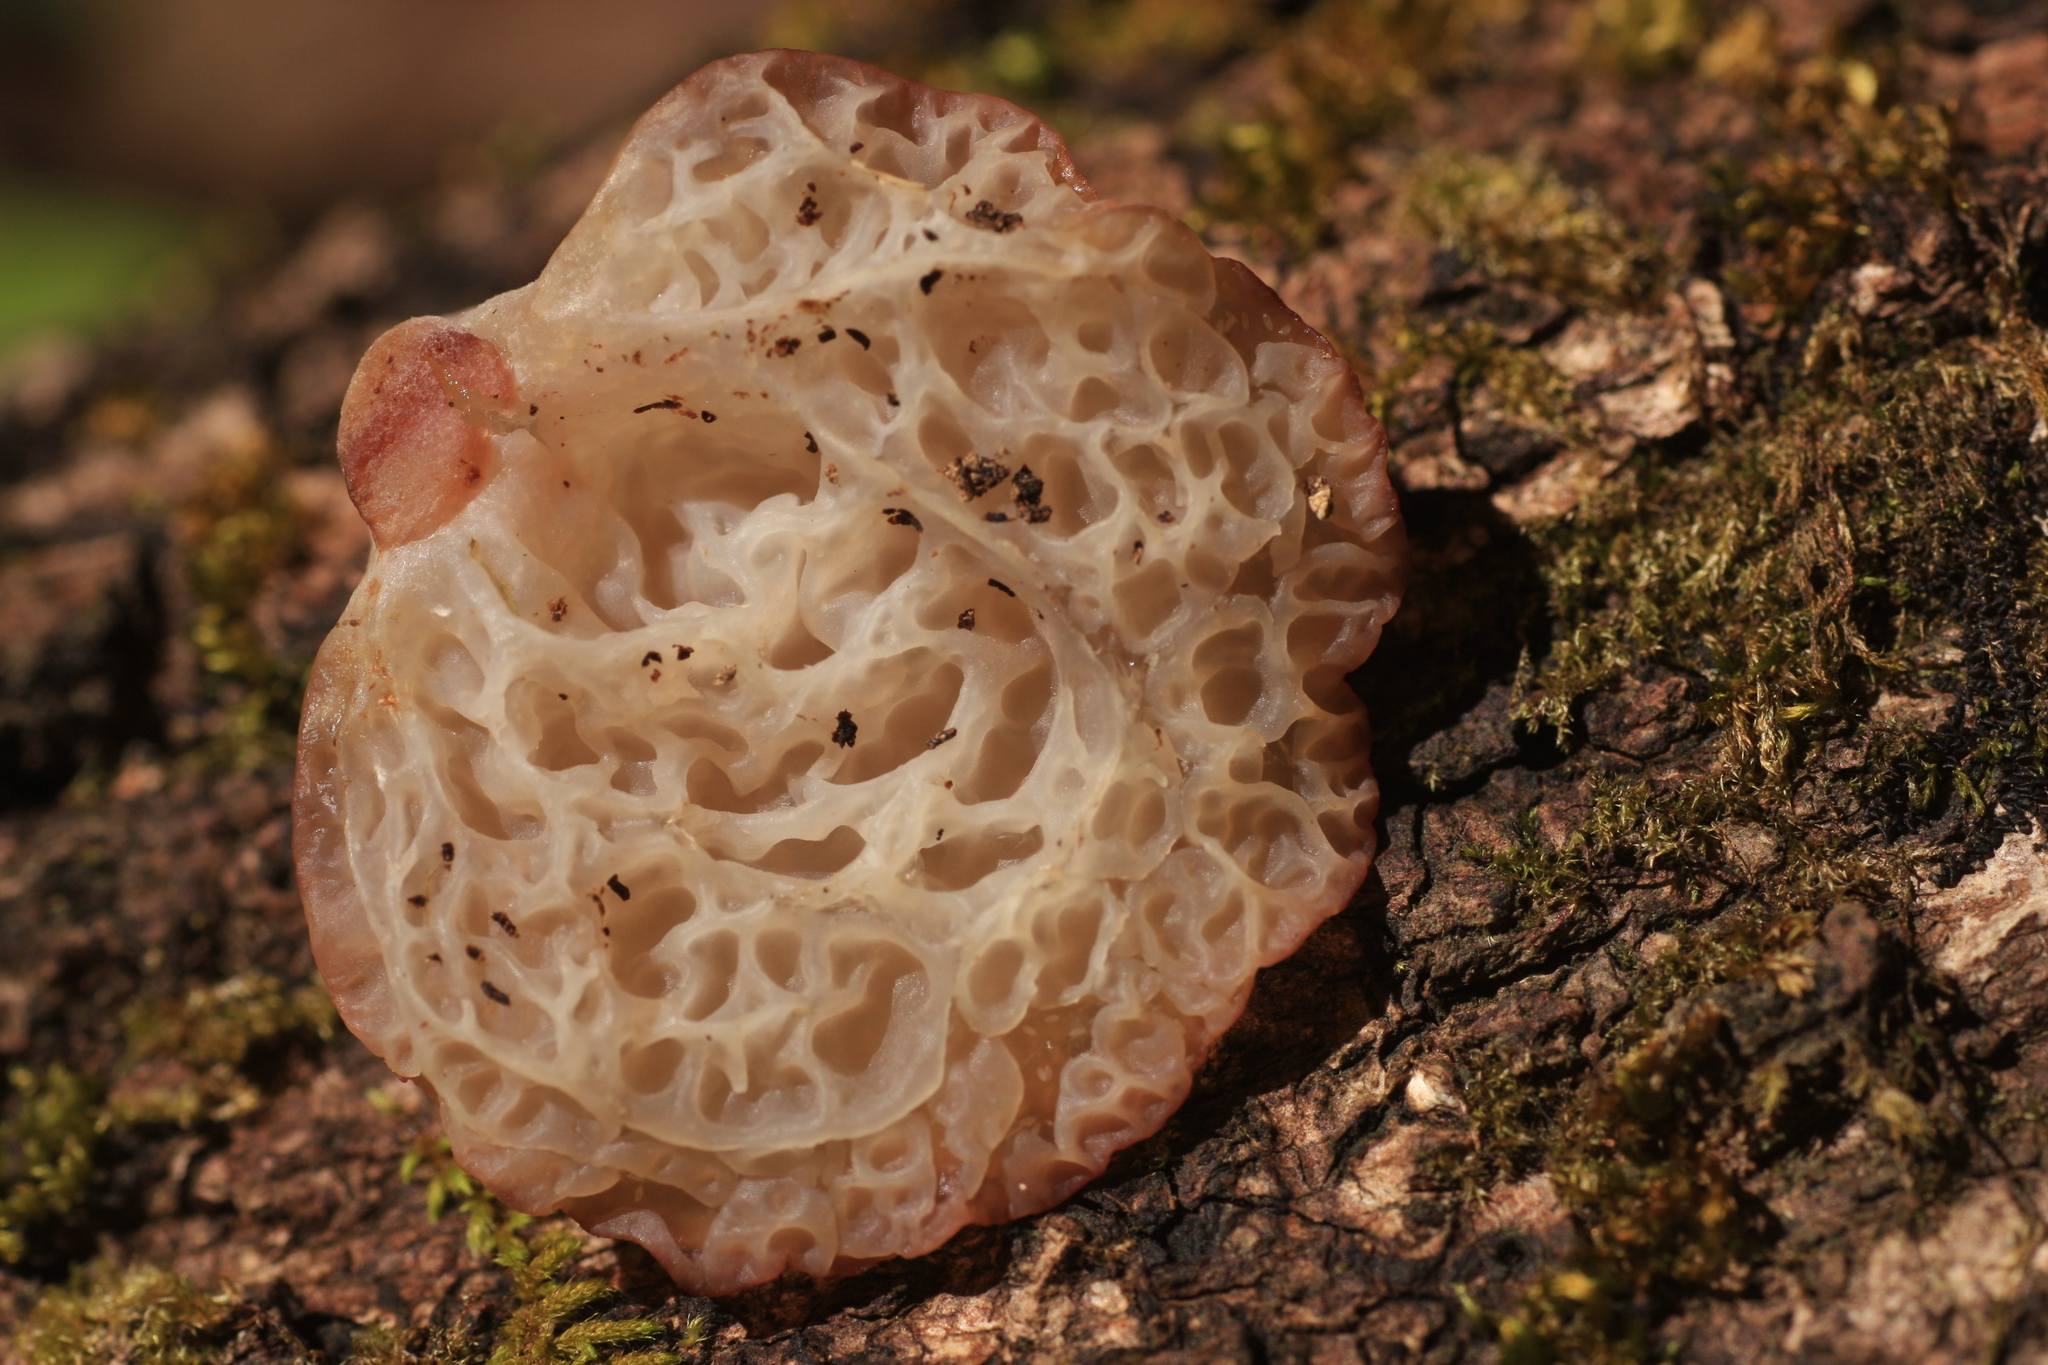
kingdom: Fungi
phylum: Basidiomycota
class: Agaricomycetes
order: Auriculariales
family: Auriculariaceae
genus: Auricularia
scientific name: Auricularia delicata
